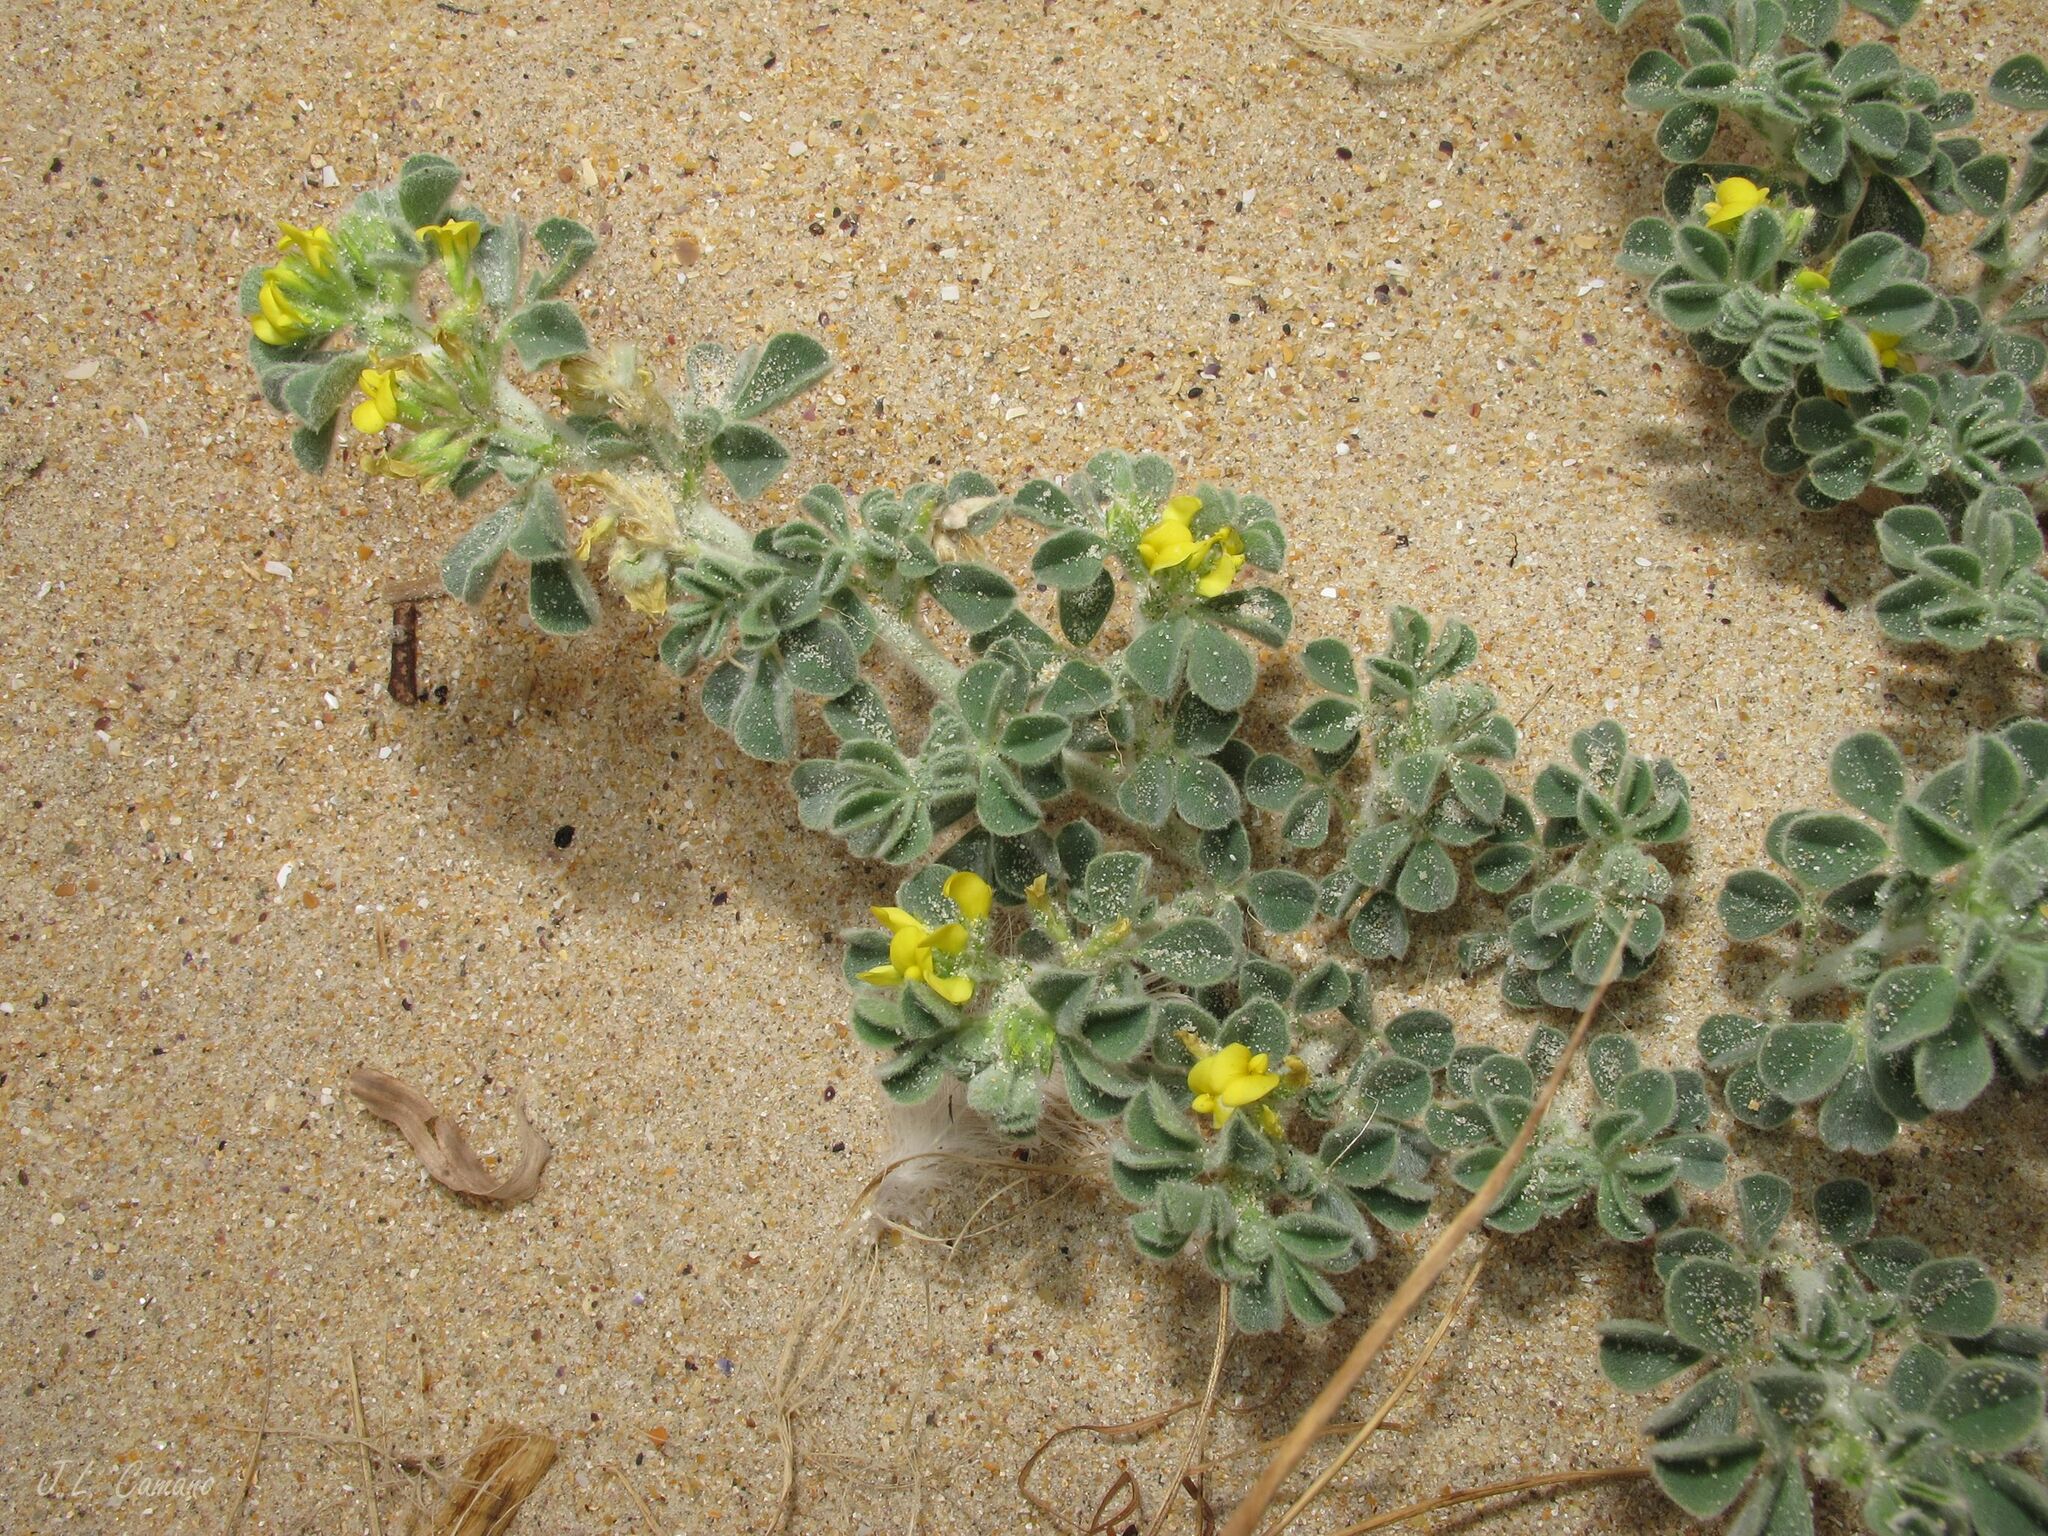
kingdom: Plantae
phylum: Tracheophyta
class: Magnoliopsida
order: Fabales
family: Fabaceae
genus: Medicago
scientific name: Medicago marina
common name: Sea medick
